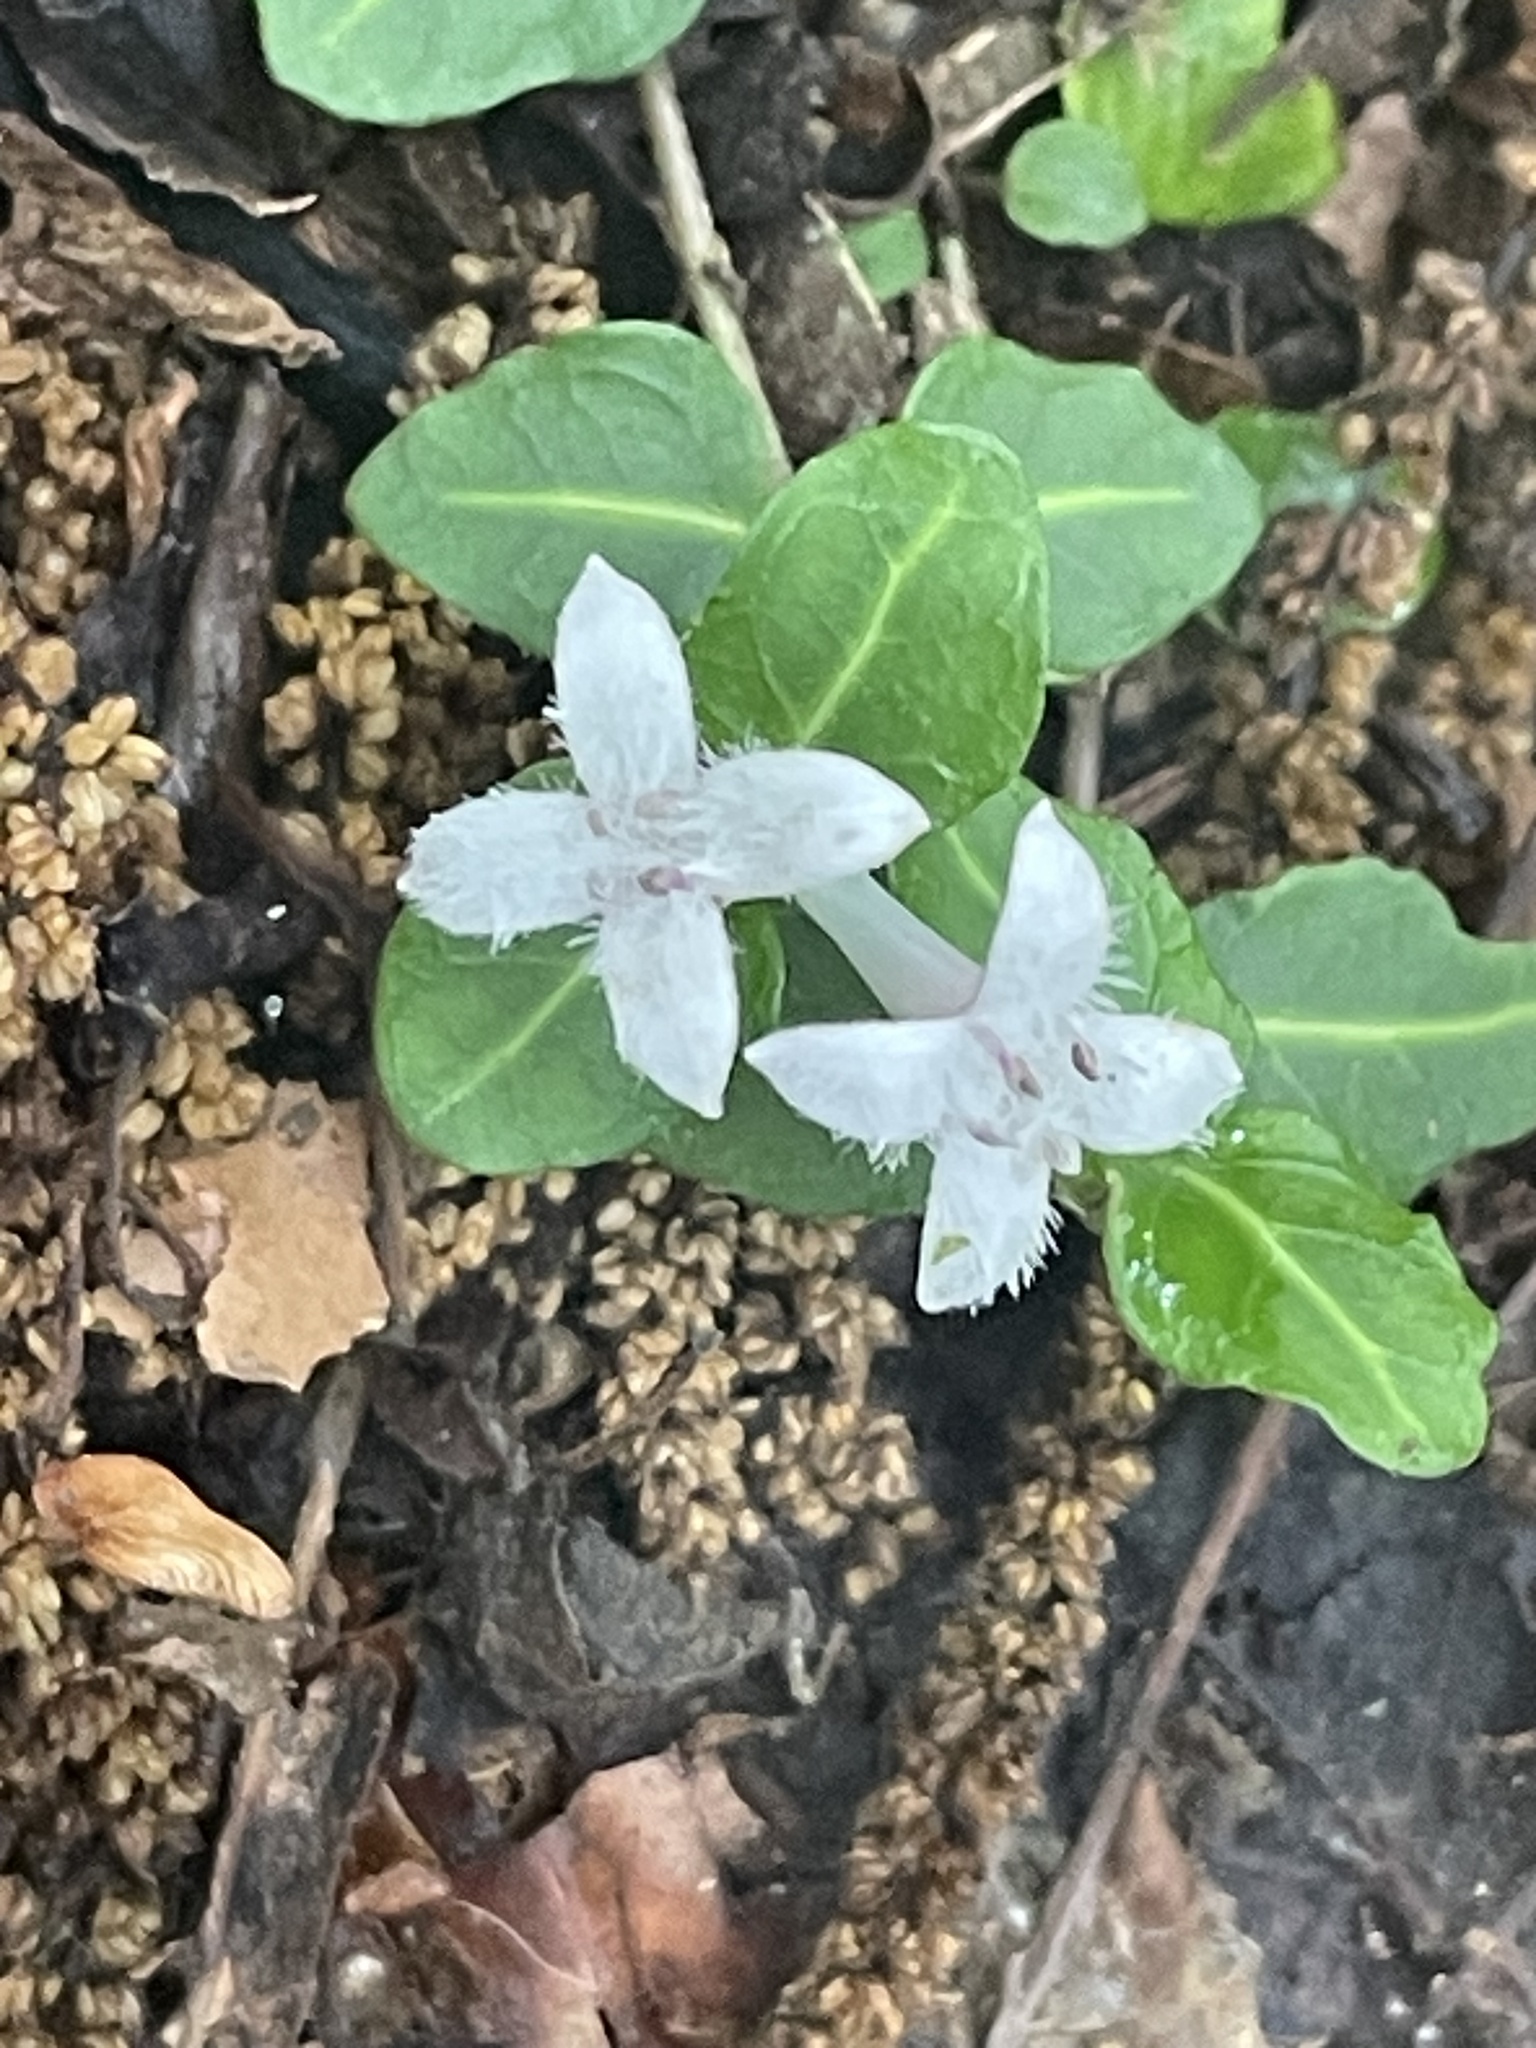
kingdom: Plantae
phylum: Tracheophyta
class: Magnoliopsida
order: Gentianales
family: Rubiaceae
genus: Mitchella
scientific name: Mitchella repens
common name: Partridge-berry
